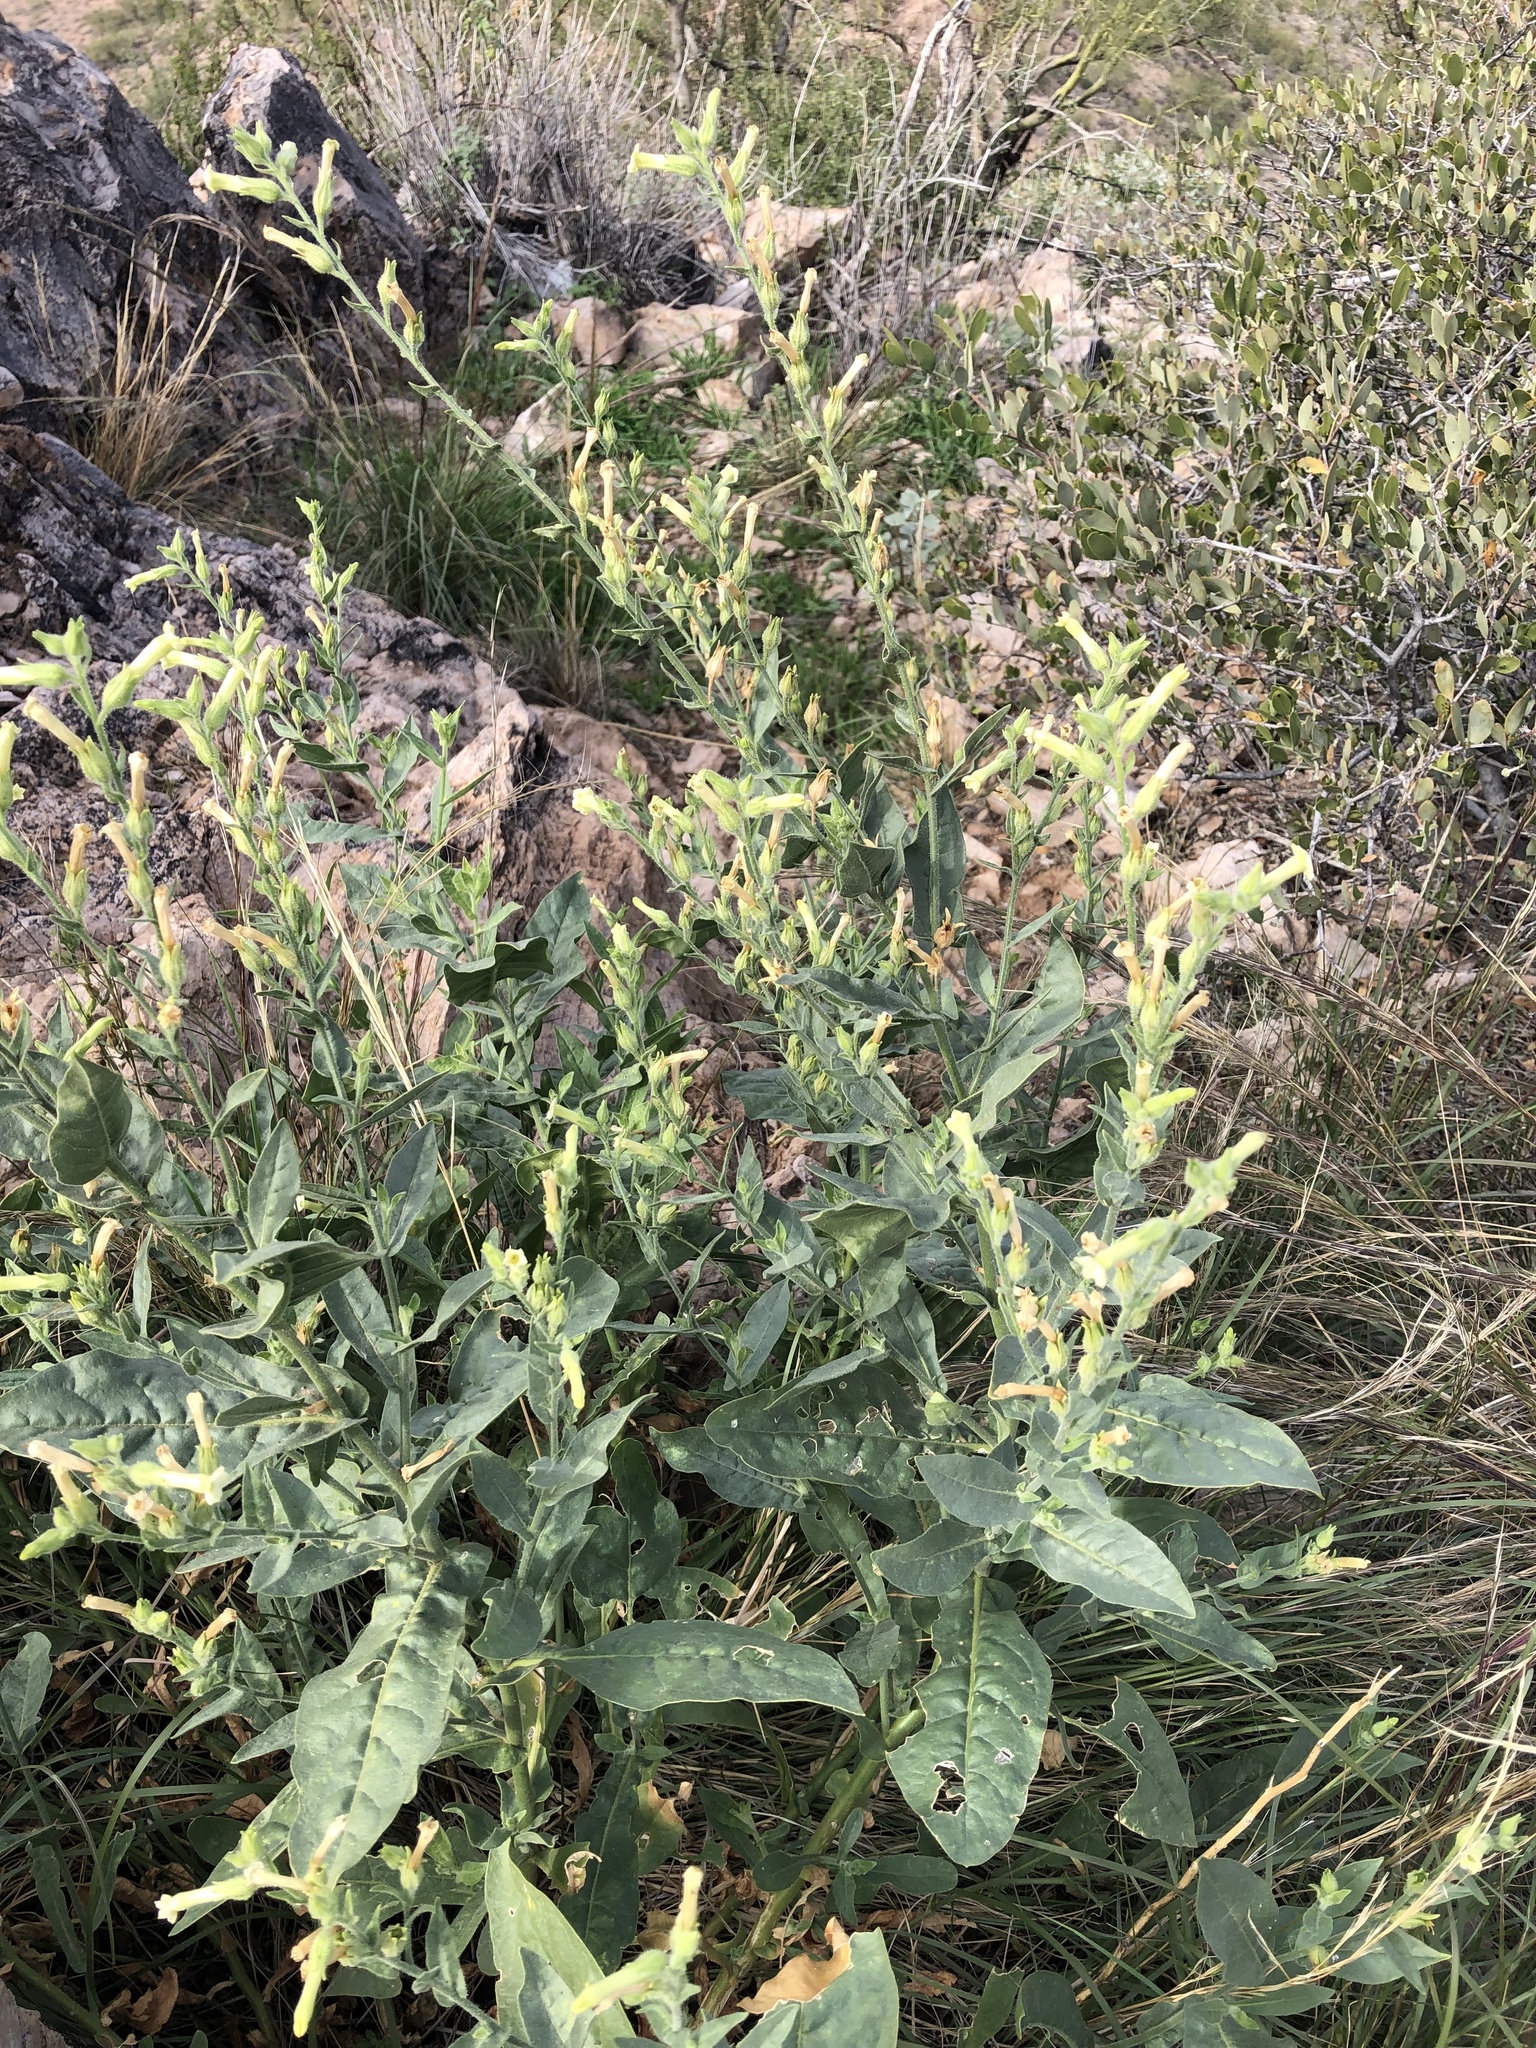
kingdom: Plantae
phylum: Tracheophyta
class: Magnoliopsida
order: Solanales
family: Solanaceae
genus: Nicotiana
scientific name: Nicotiana obtusifolia
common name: Desert tobacco
